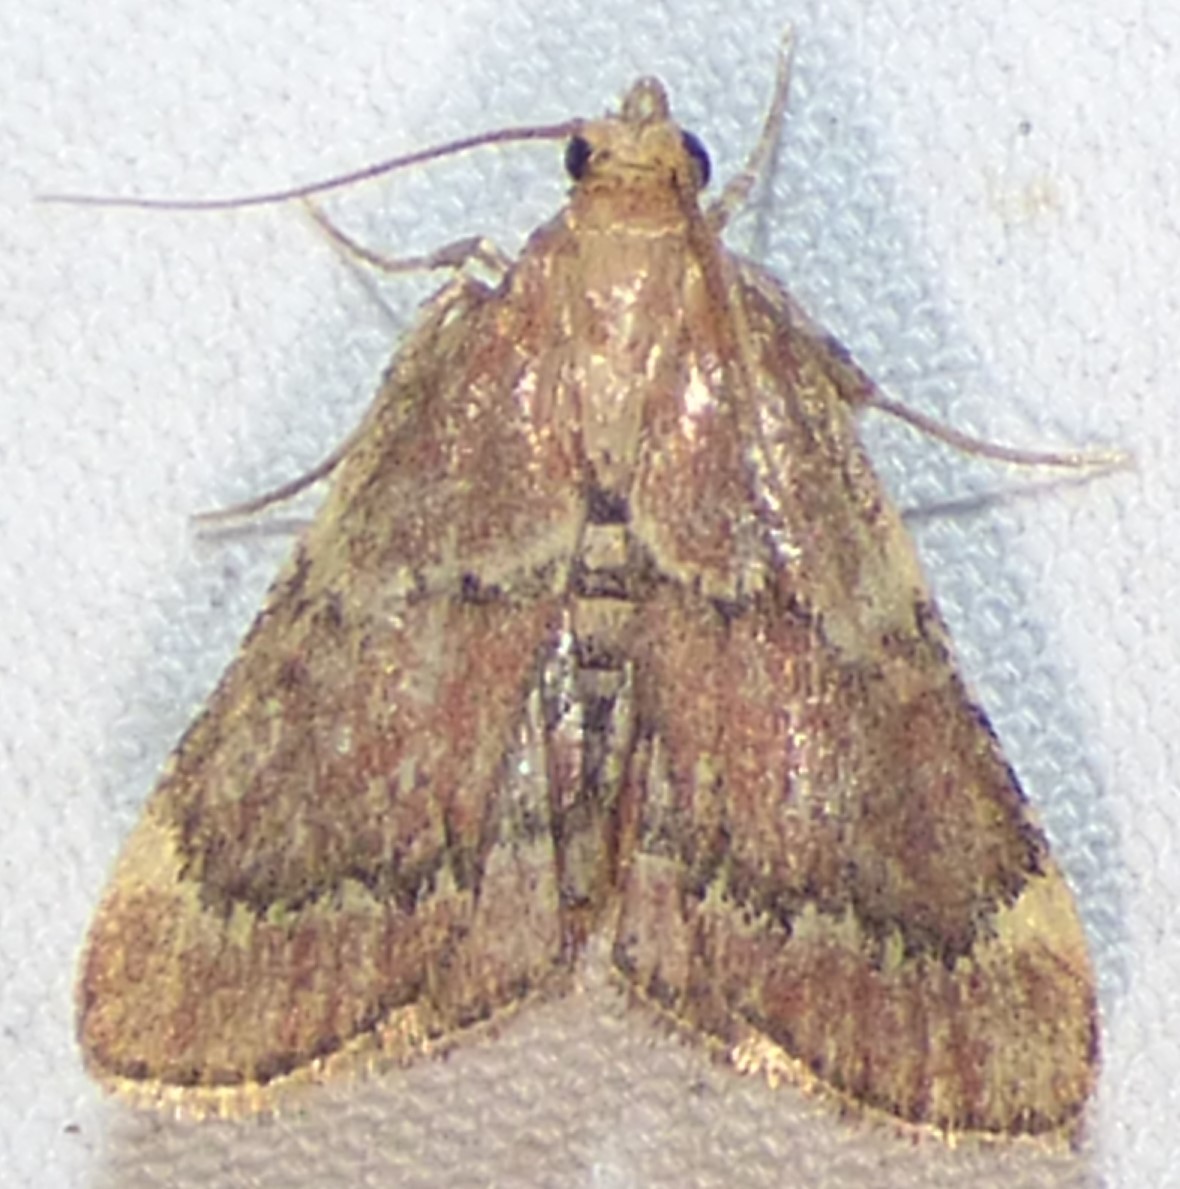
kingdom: Animalia
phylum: Arthropoda
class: Insecta
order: Lepidoptera
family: Pyralidae
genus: Hypsopygia
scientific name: Hypsopygia intermedialis
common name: Red-shawled moth
